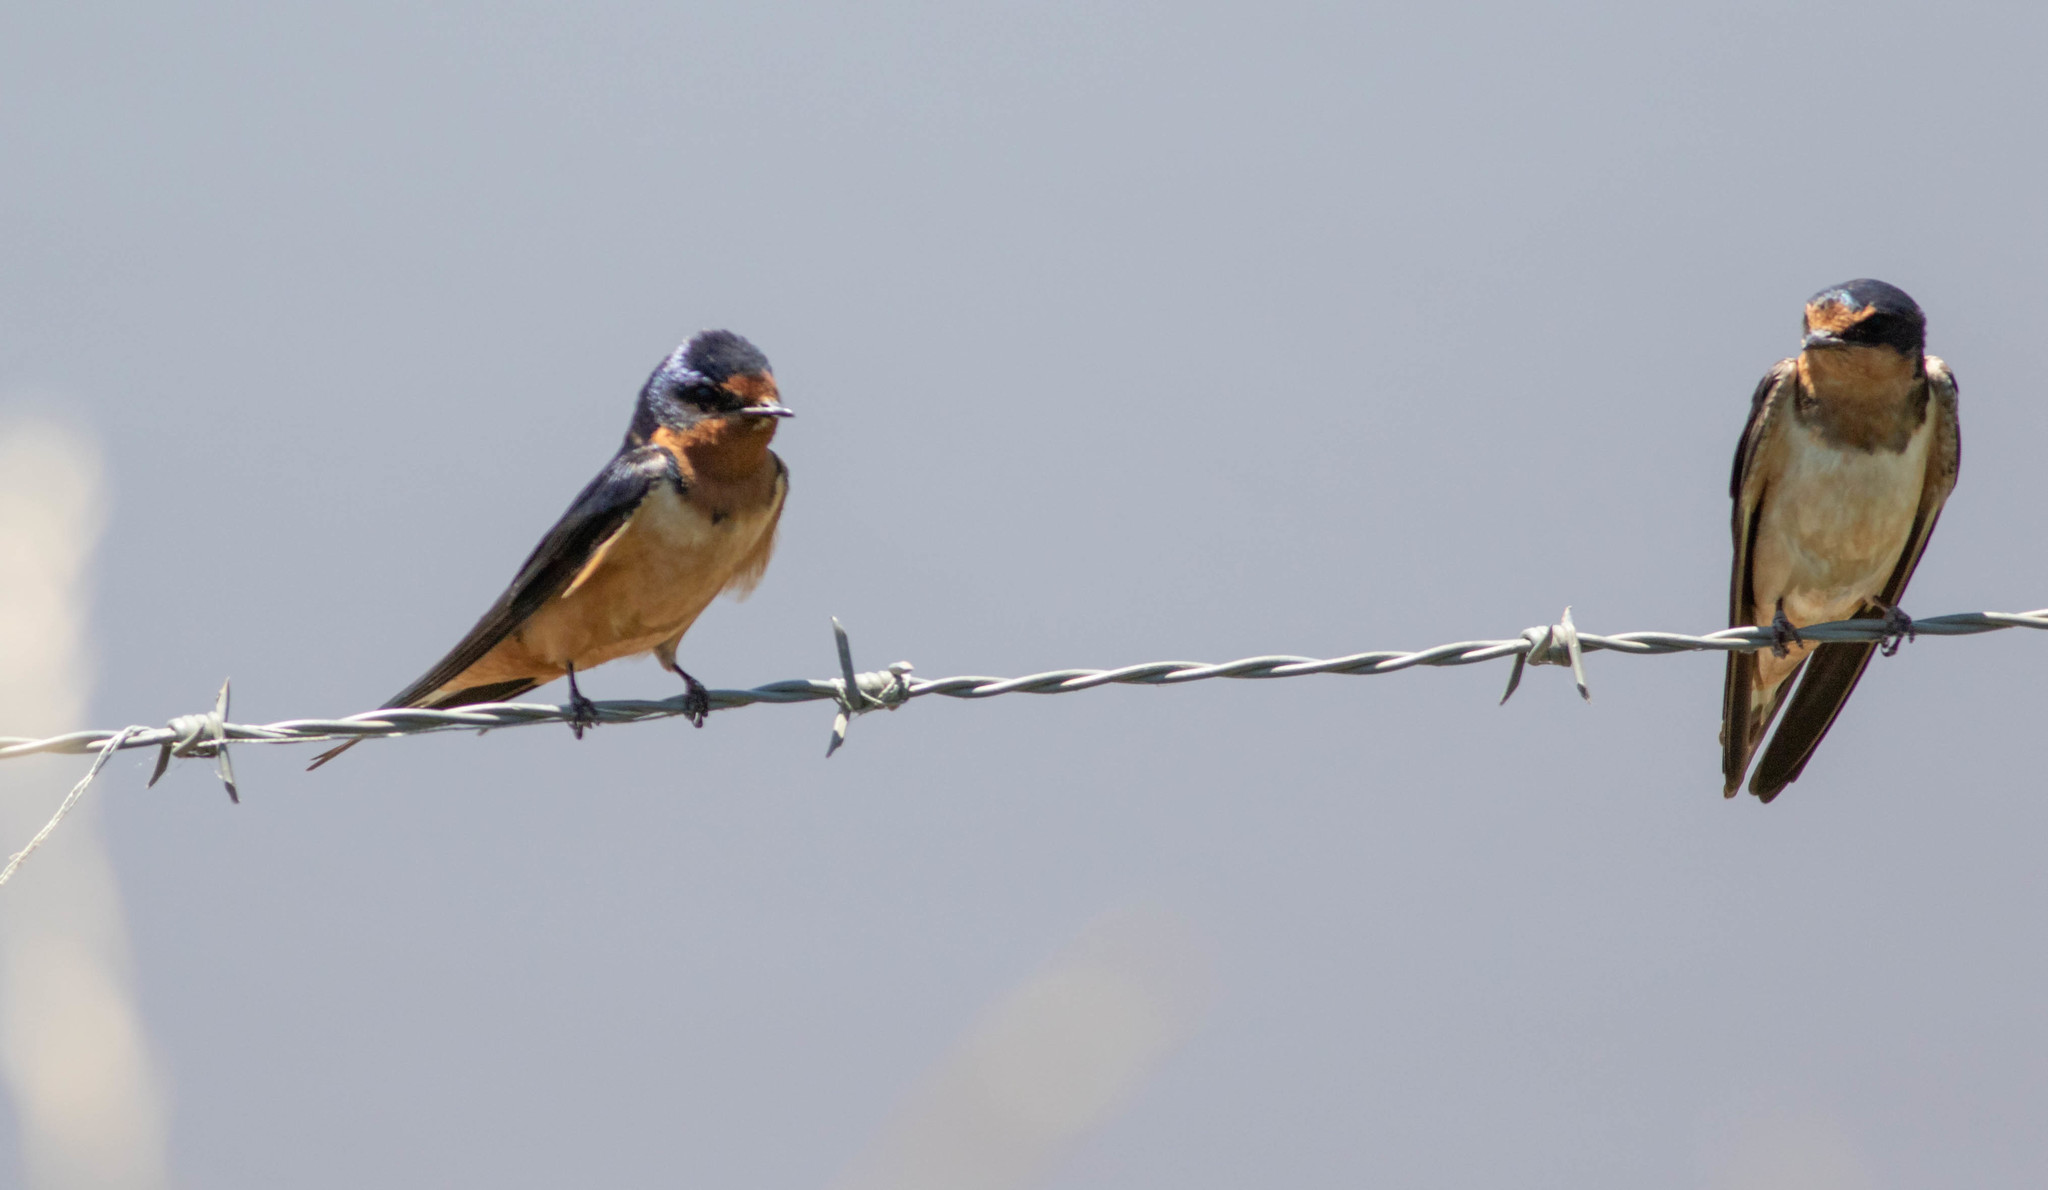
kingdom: Animalia
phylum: Chordata
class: Aves
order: Passeriformes
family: Hirundinidae
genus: Hirundo
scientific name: Hirundo rustica
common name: Barn swallow
